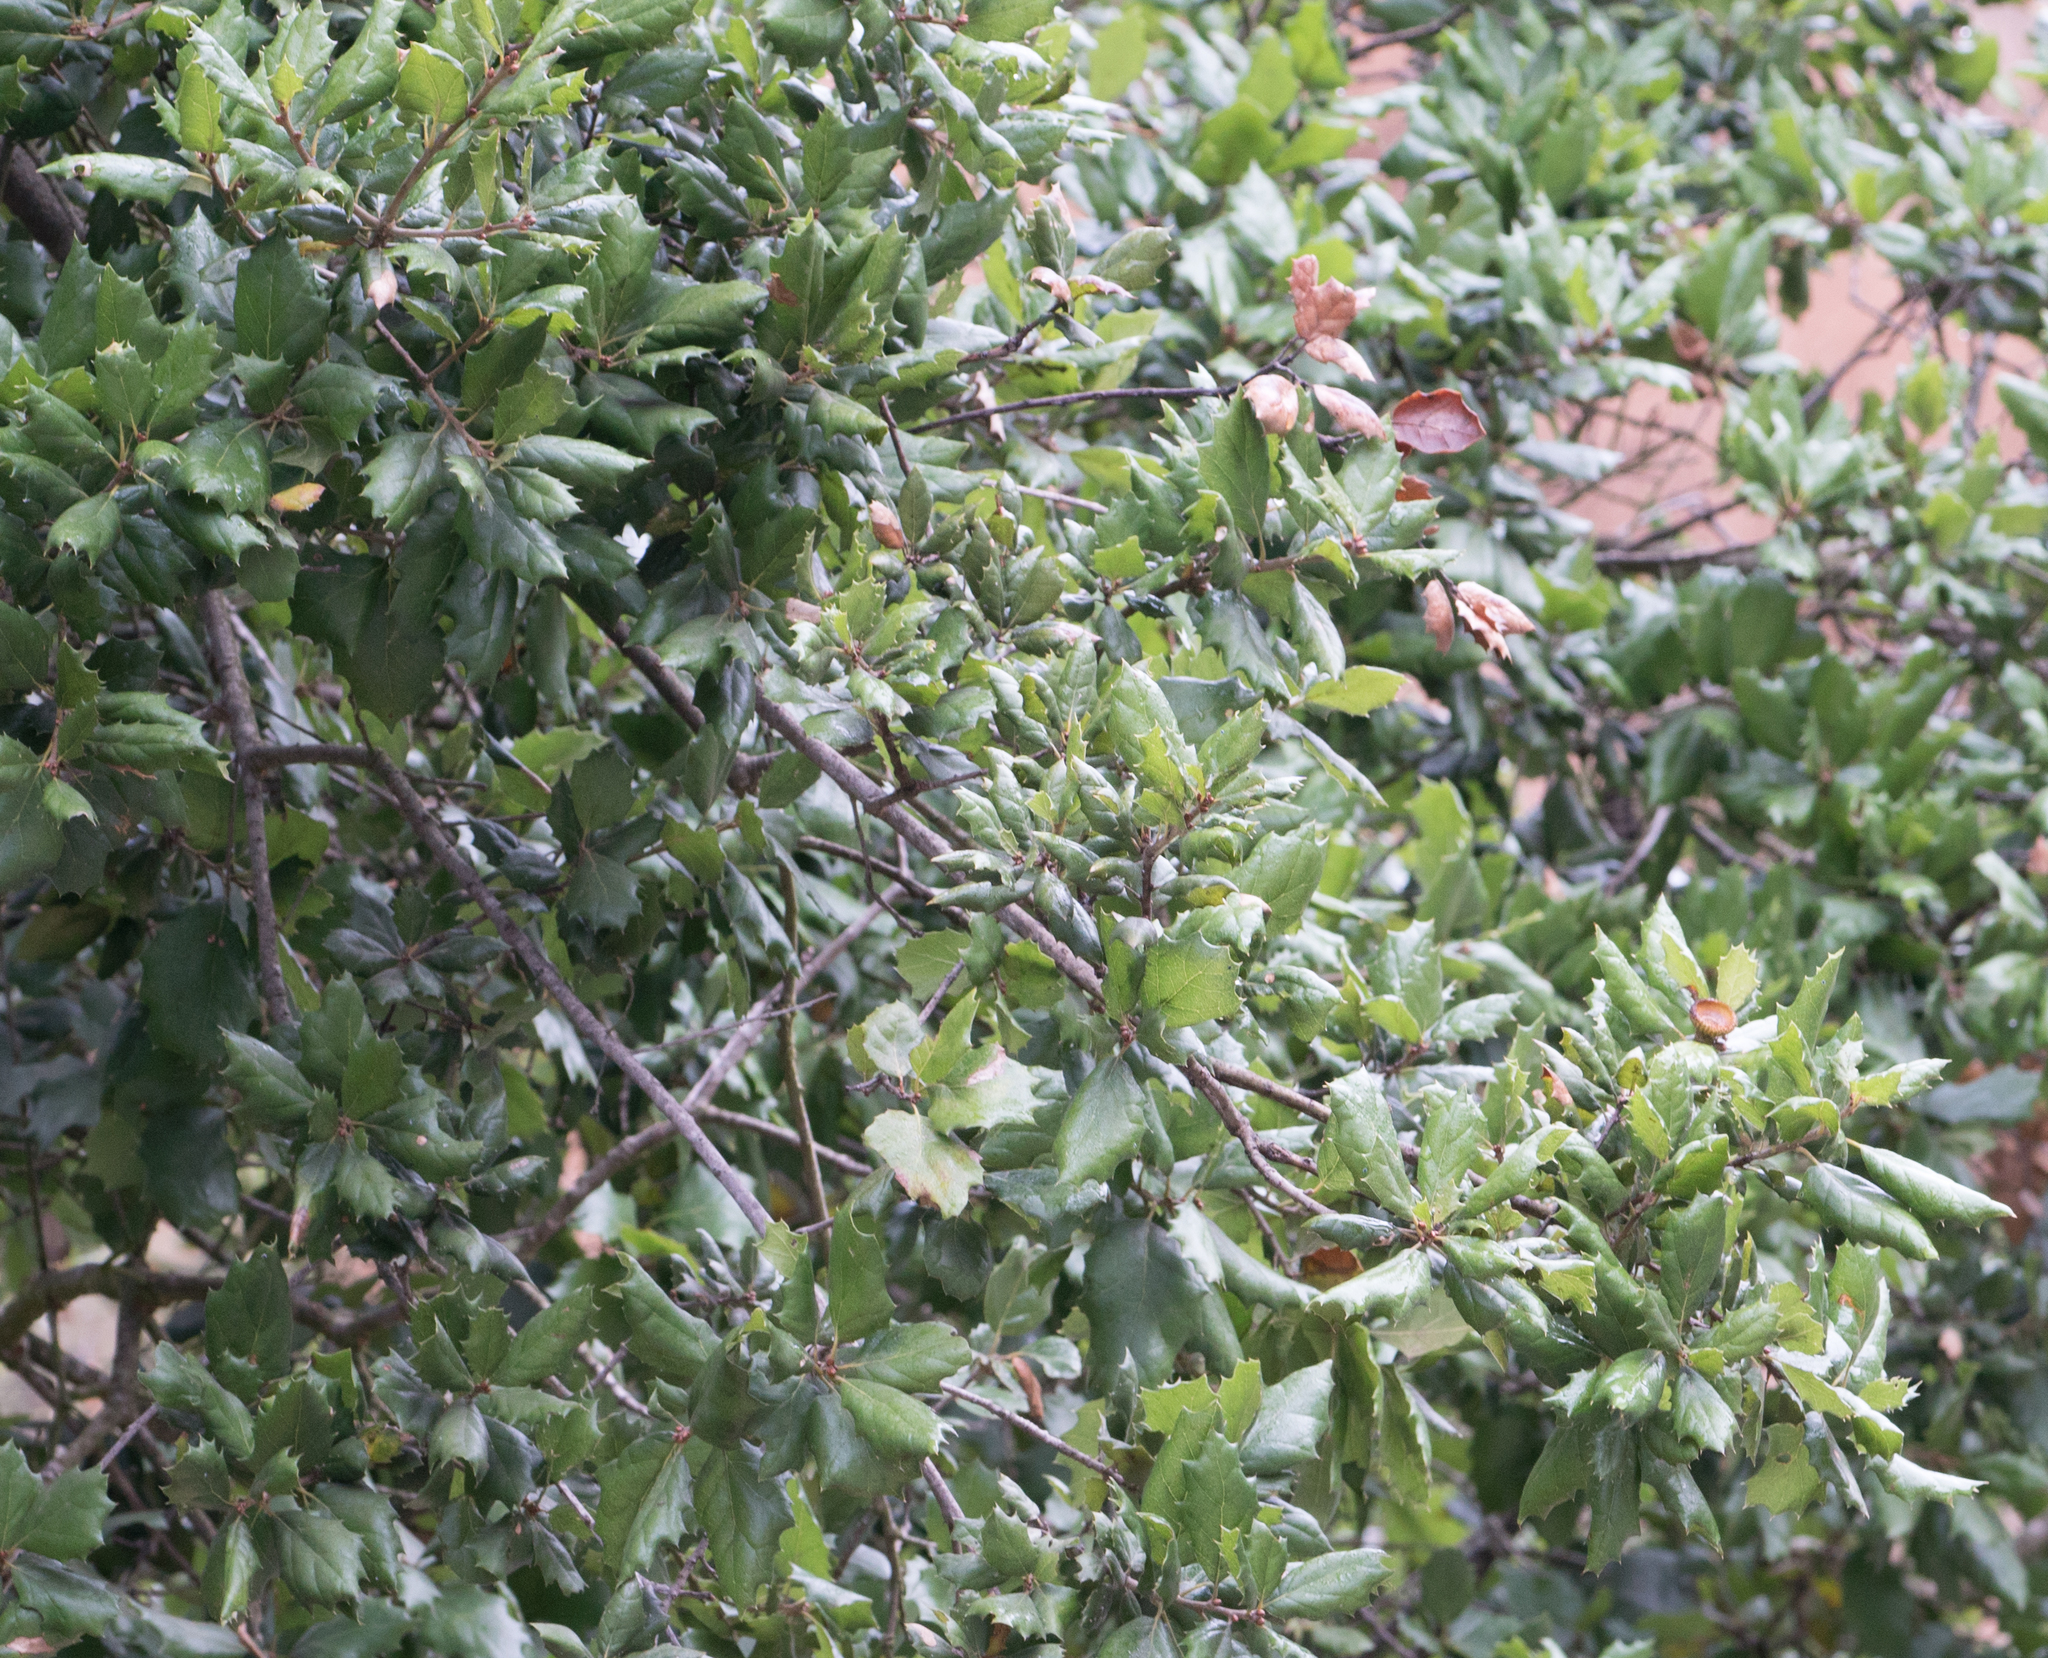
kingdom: Plantae
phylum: Tracheophyta
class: Magnoliopsida
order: Fagales
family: Fagaceae
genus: Quercus
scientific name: Quercus agrifolia
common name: California live oak
